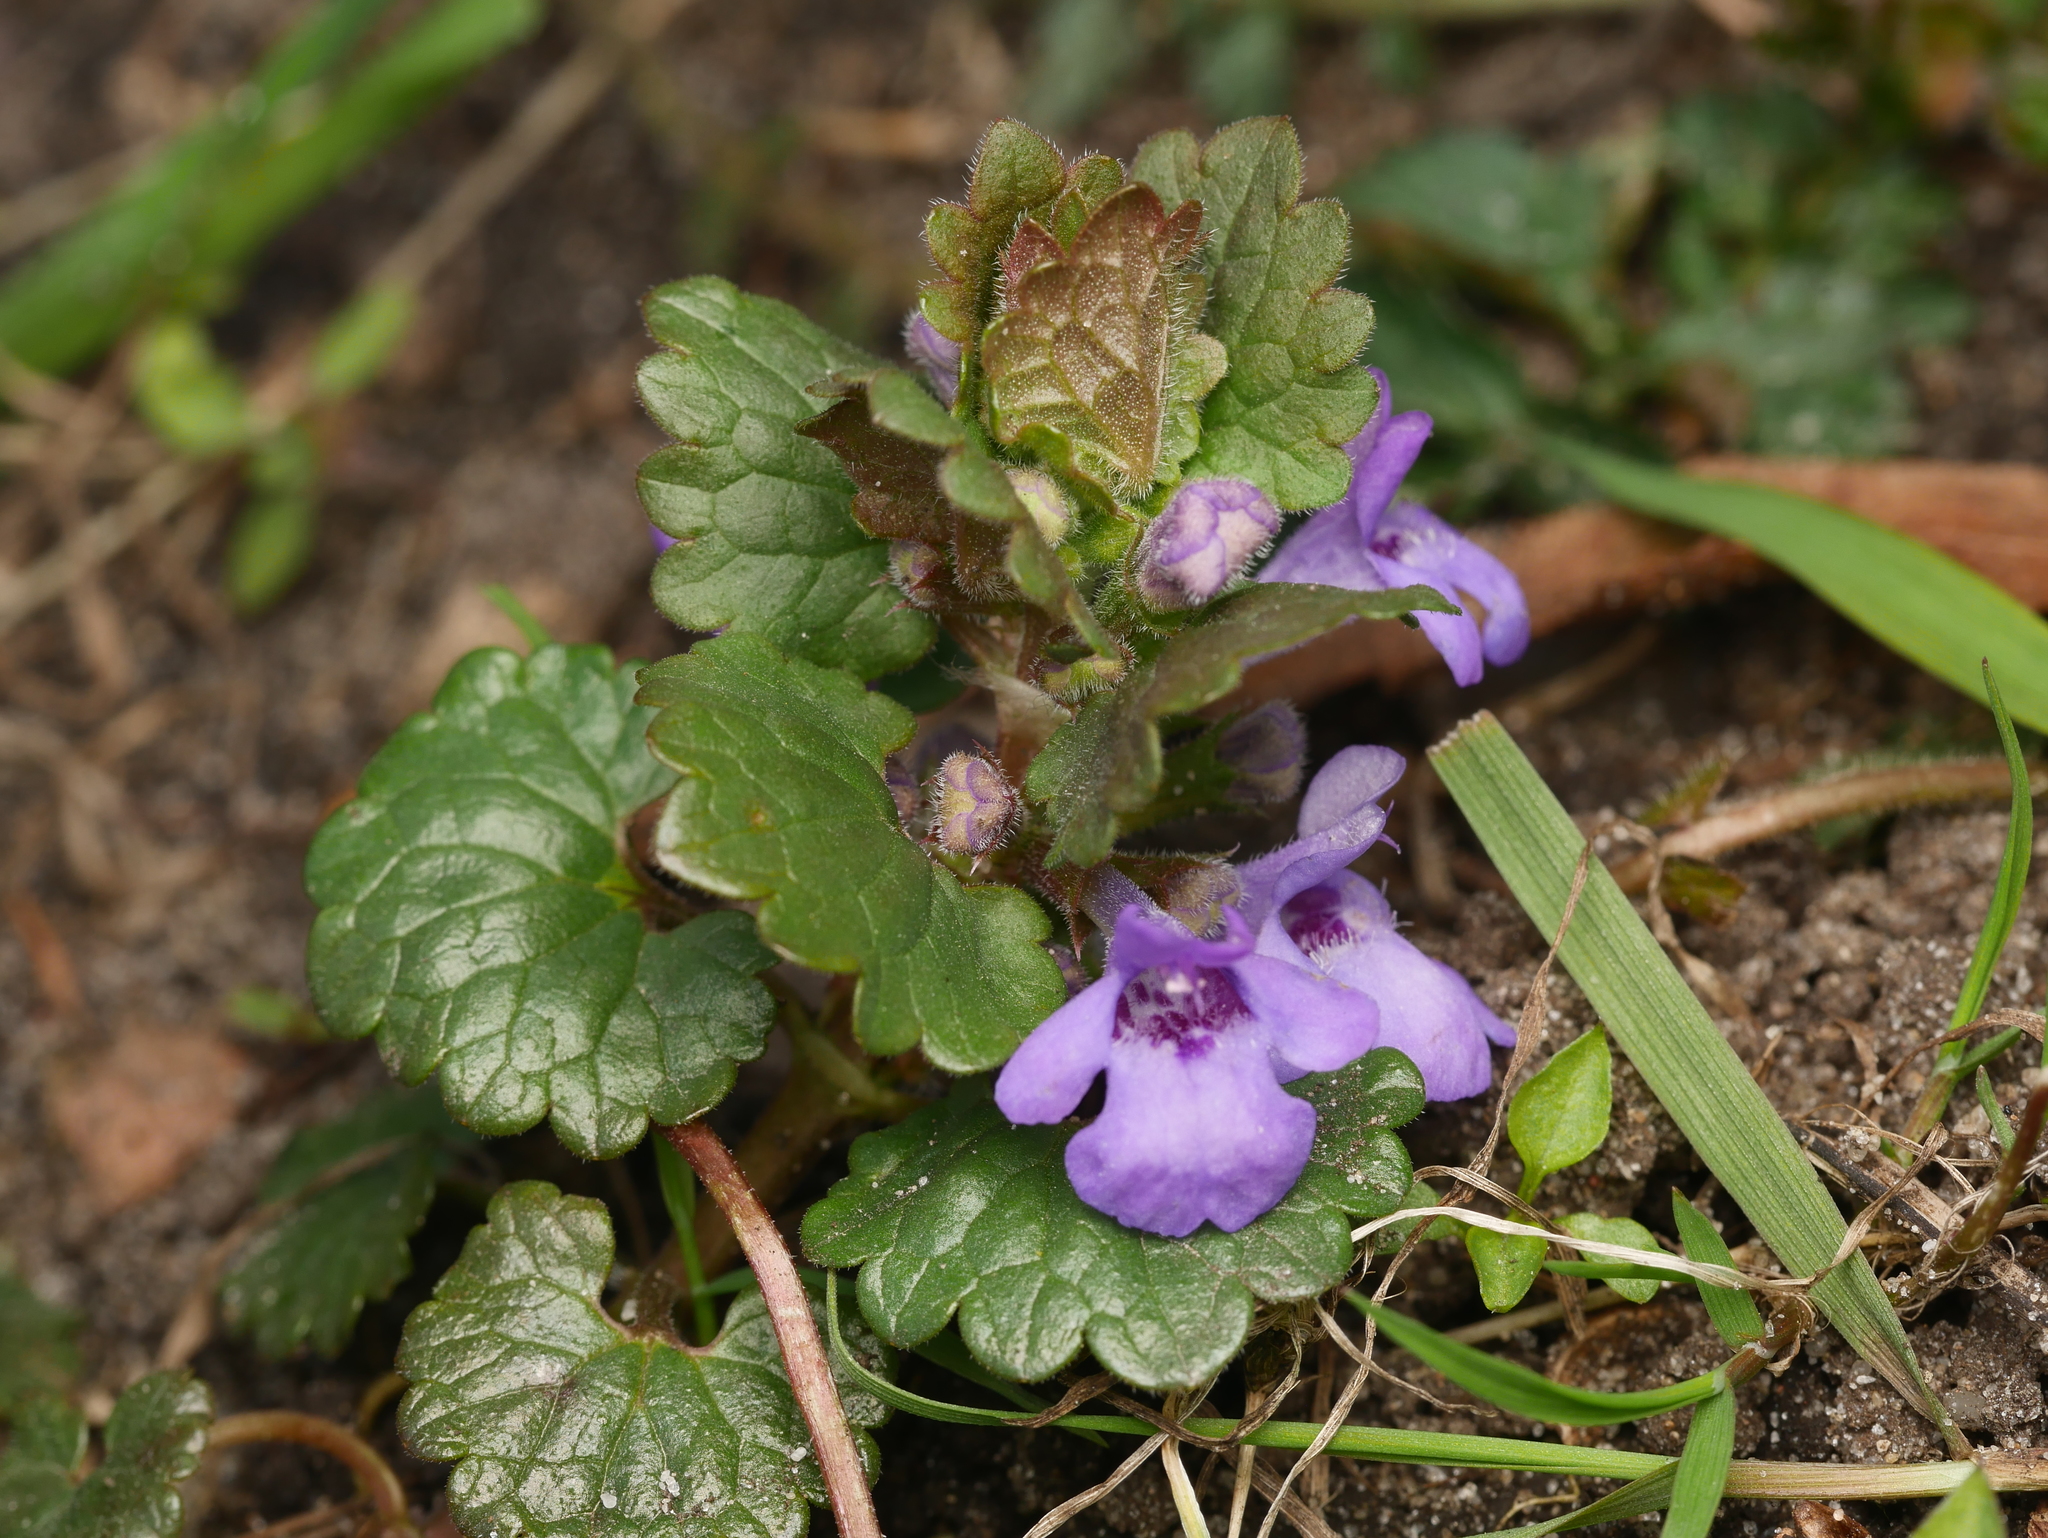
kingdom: Plantae
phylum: Tracheophyta
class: Magnoliopsida
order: Lamiales
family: Lamiaceae
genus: Glechoma
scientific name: Glechoma hederacea
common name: Ground ivy
